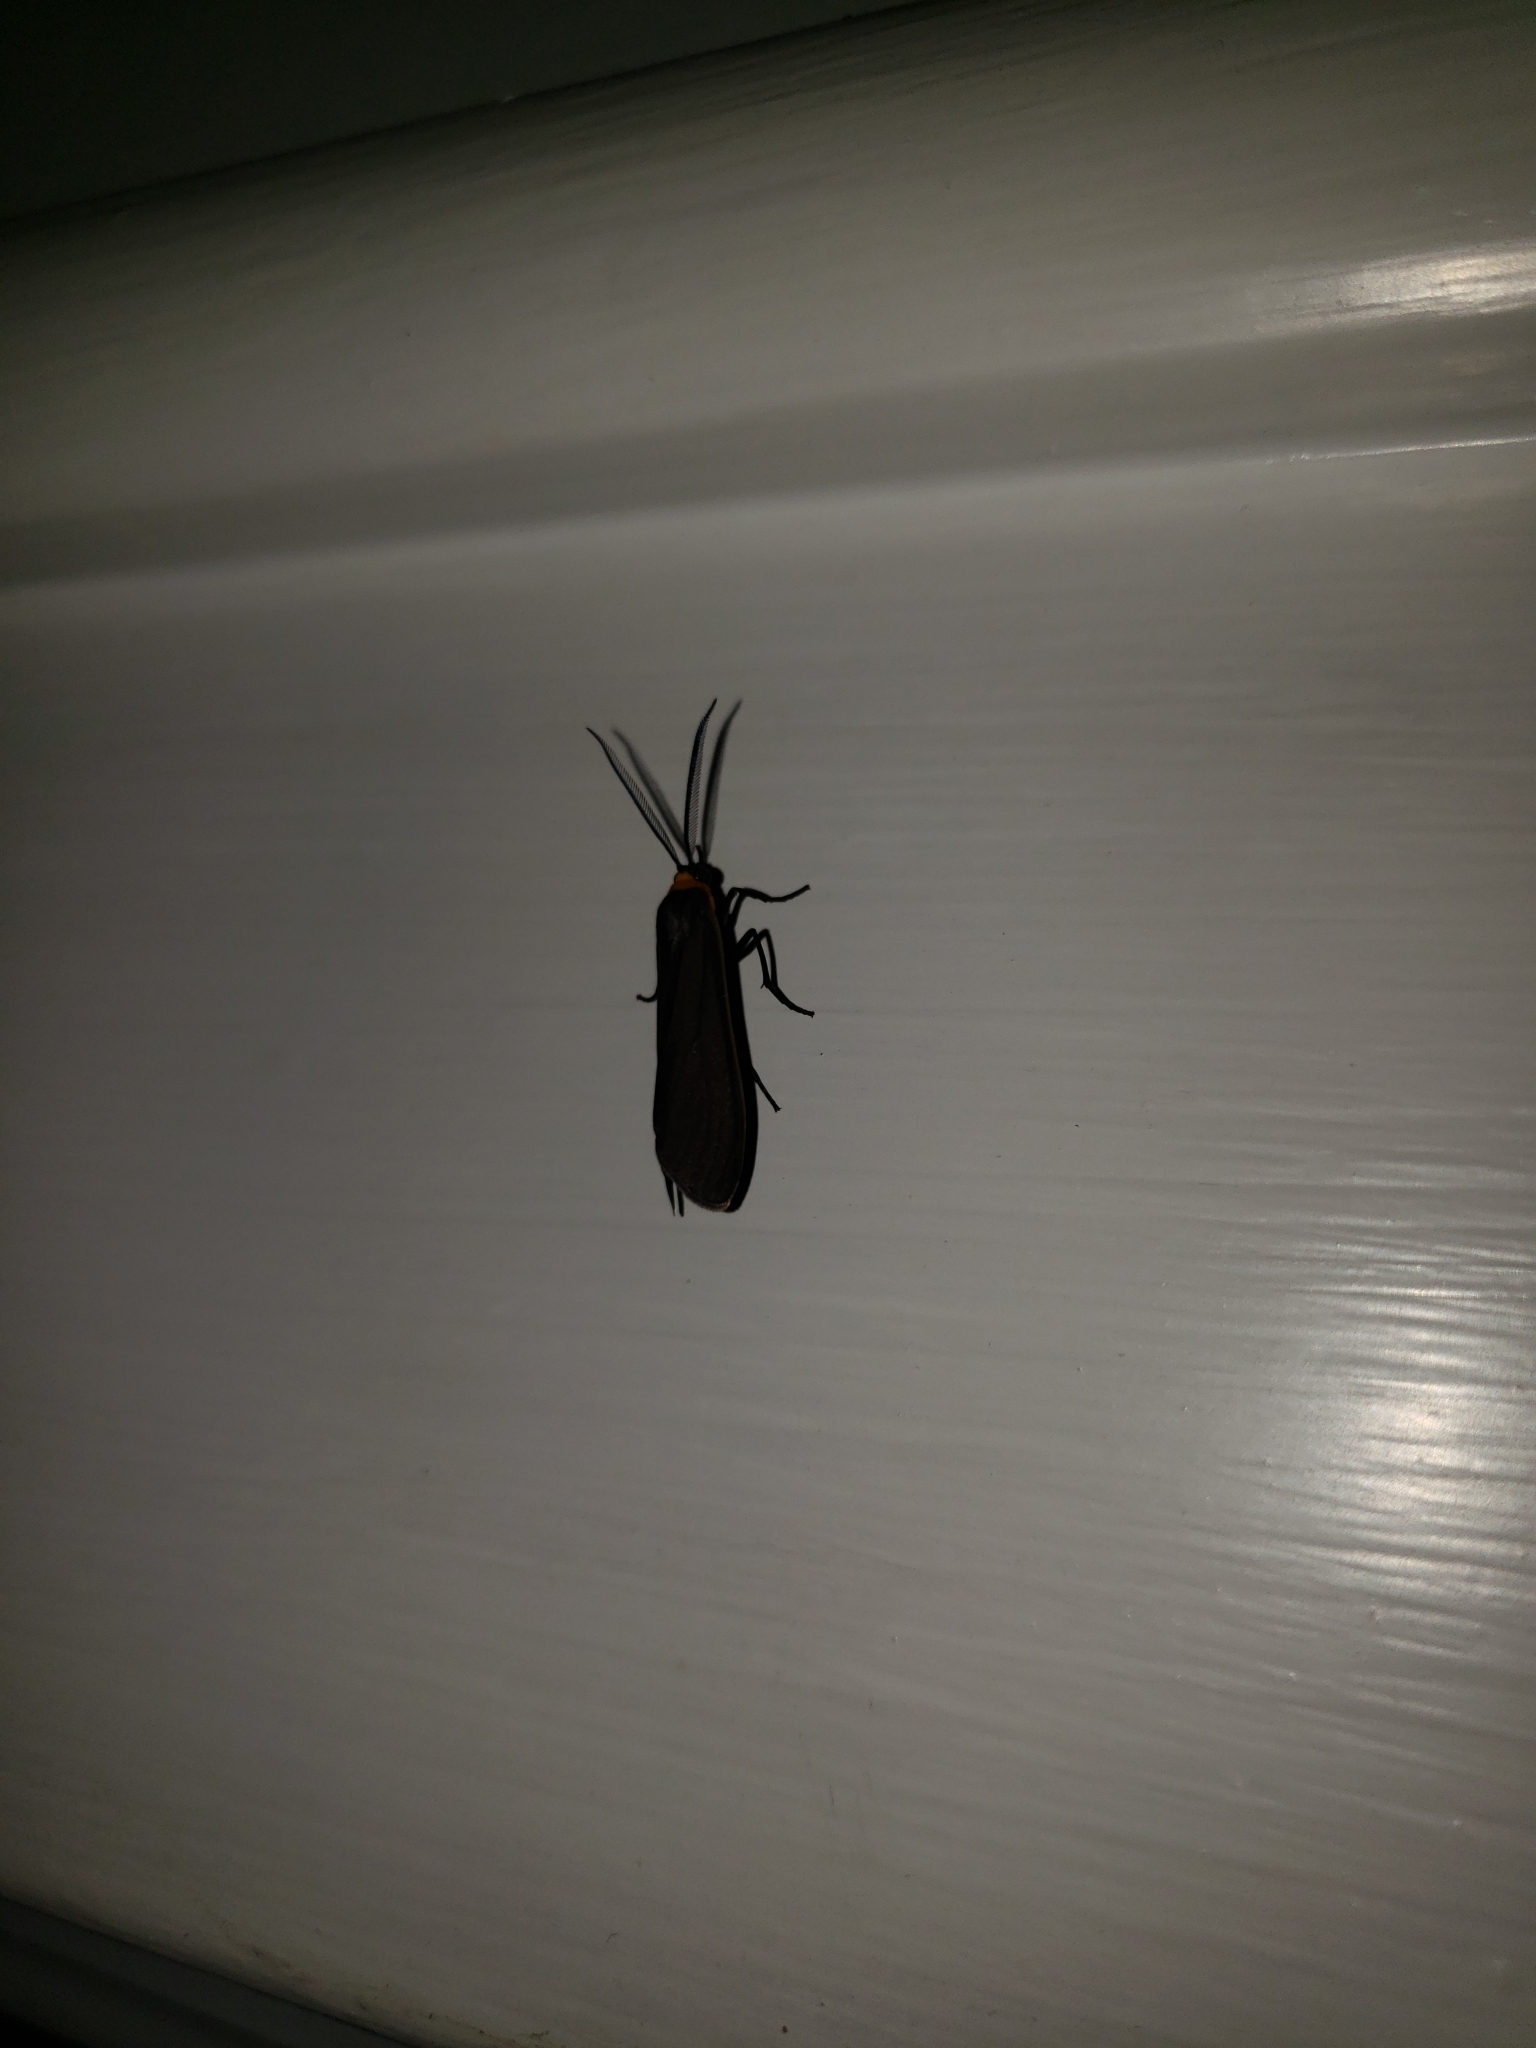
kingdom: Animalia
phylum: Arthropoda
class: Insecta
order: Lepidoptera
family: Erebidae
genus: Cisseps
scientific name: Cisseps fulvicollis
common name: Yellow-collared scape moth
